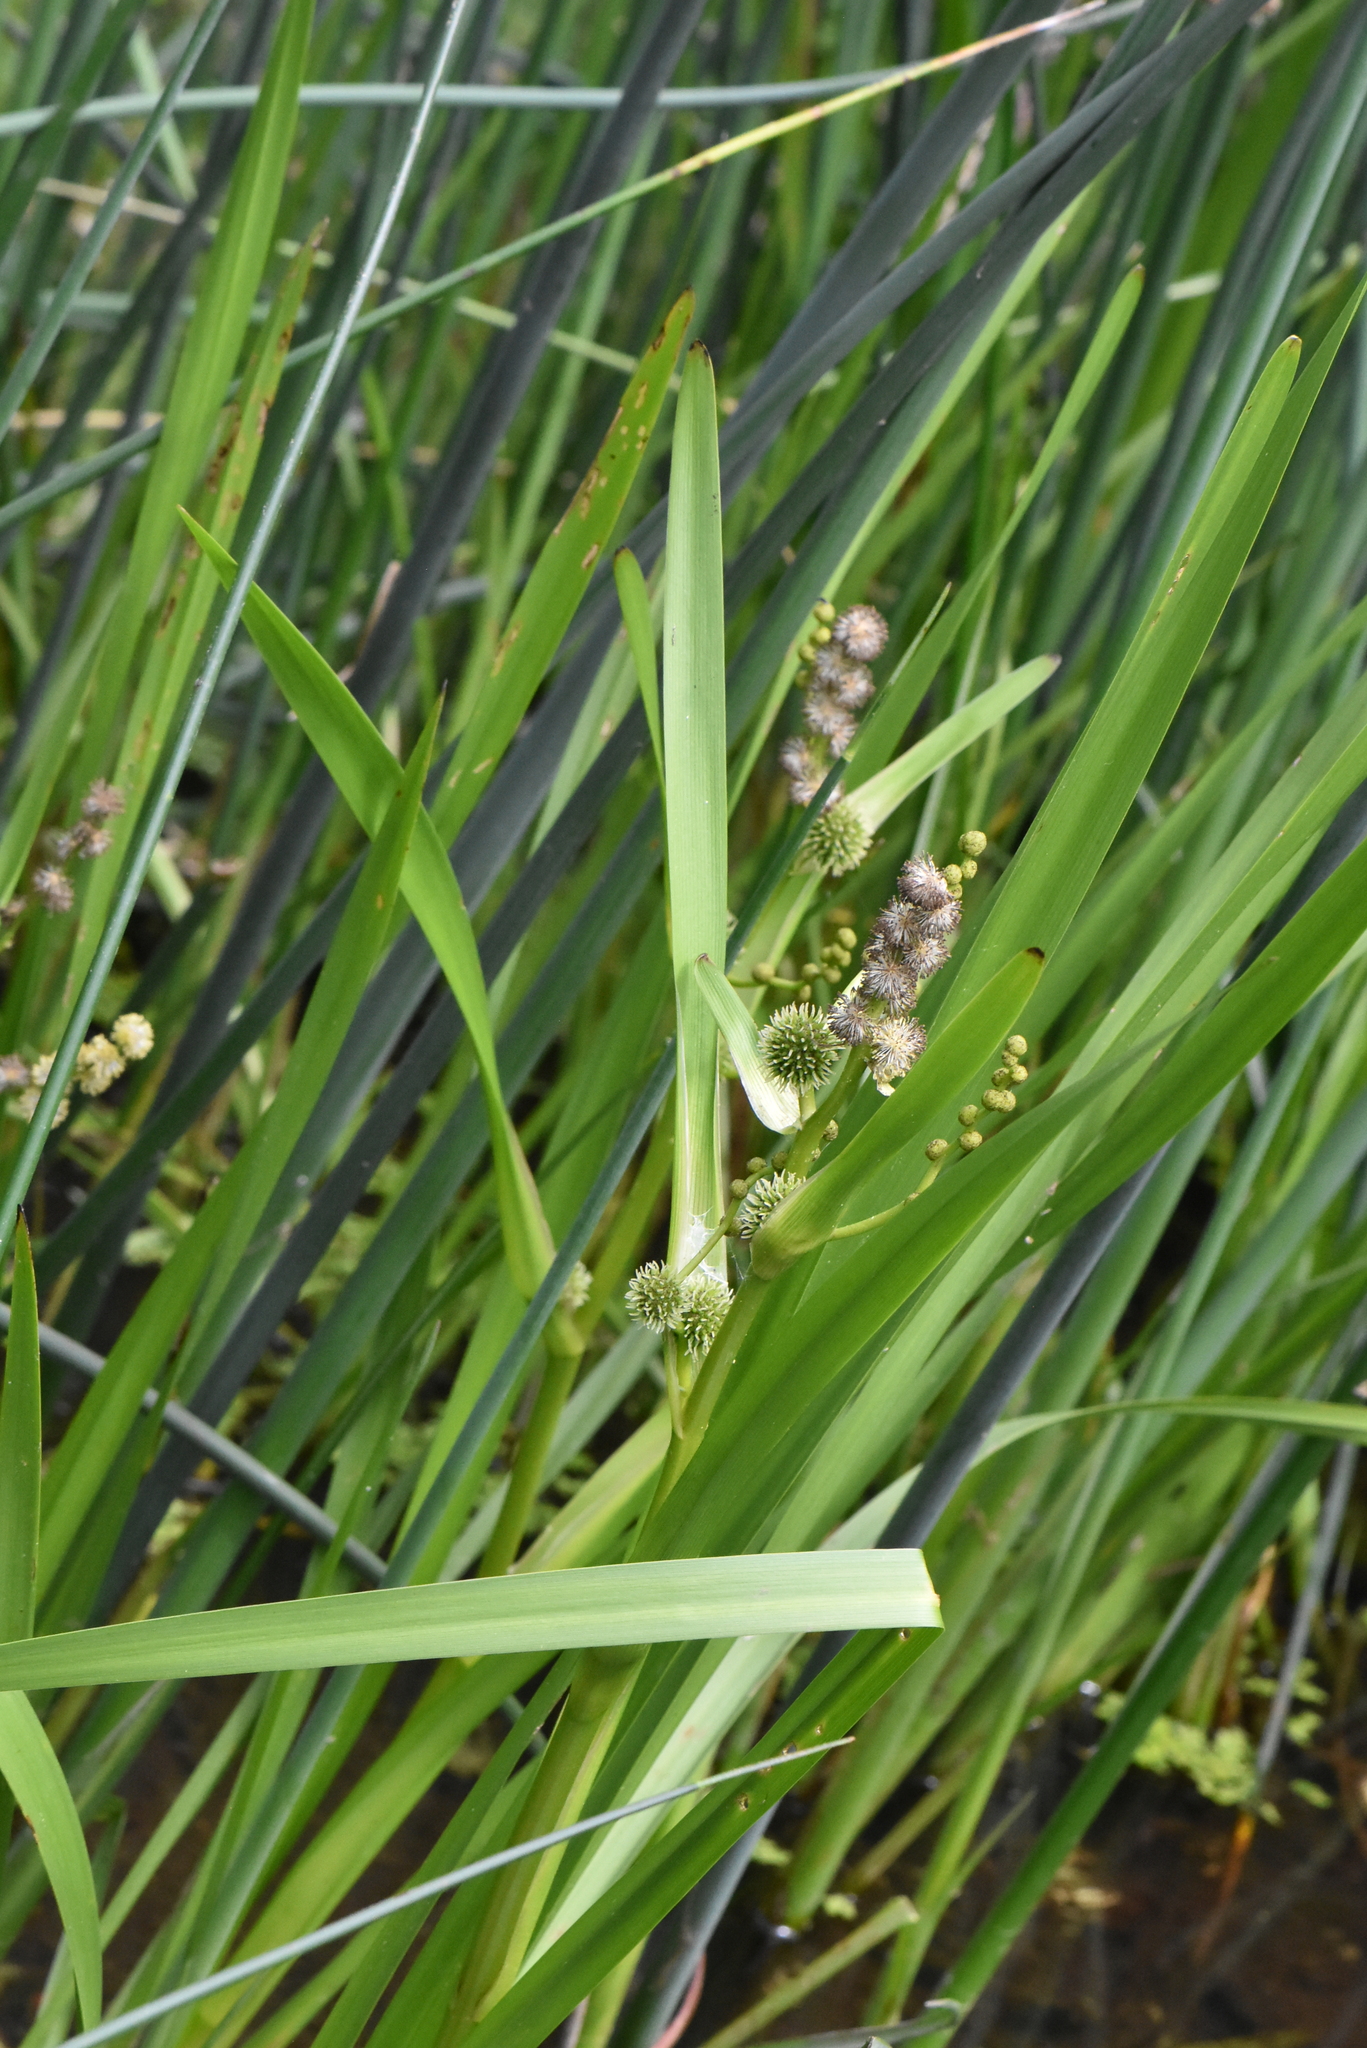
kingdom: Plantae
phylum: Tracheophyta
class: Liliopsida
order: Poales
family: Typhaceae
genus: Sparganium
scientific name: Sparganium erectum
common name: Branched bur-reed
